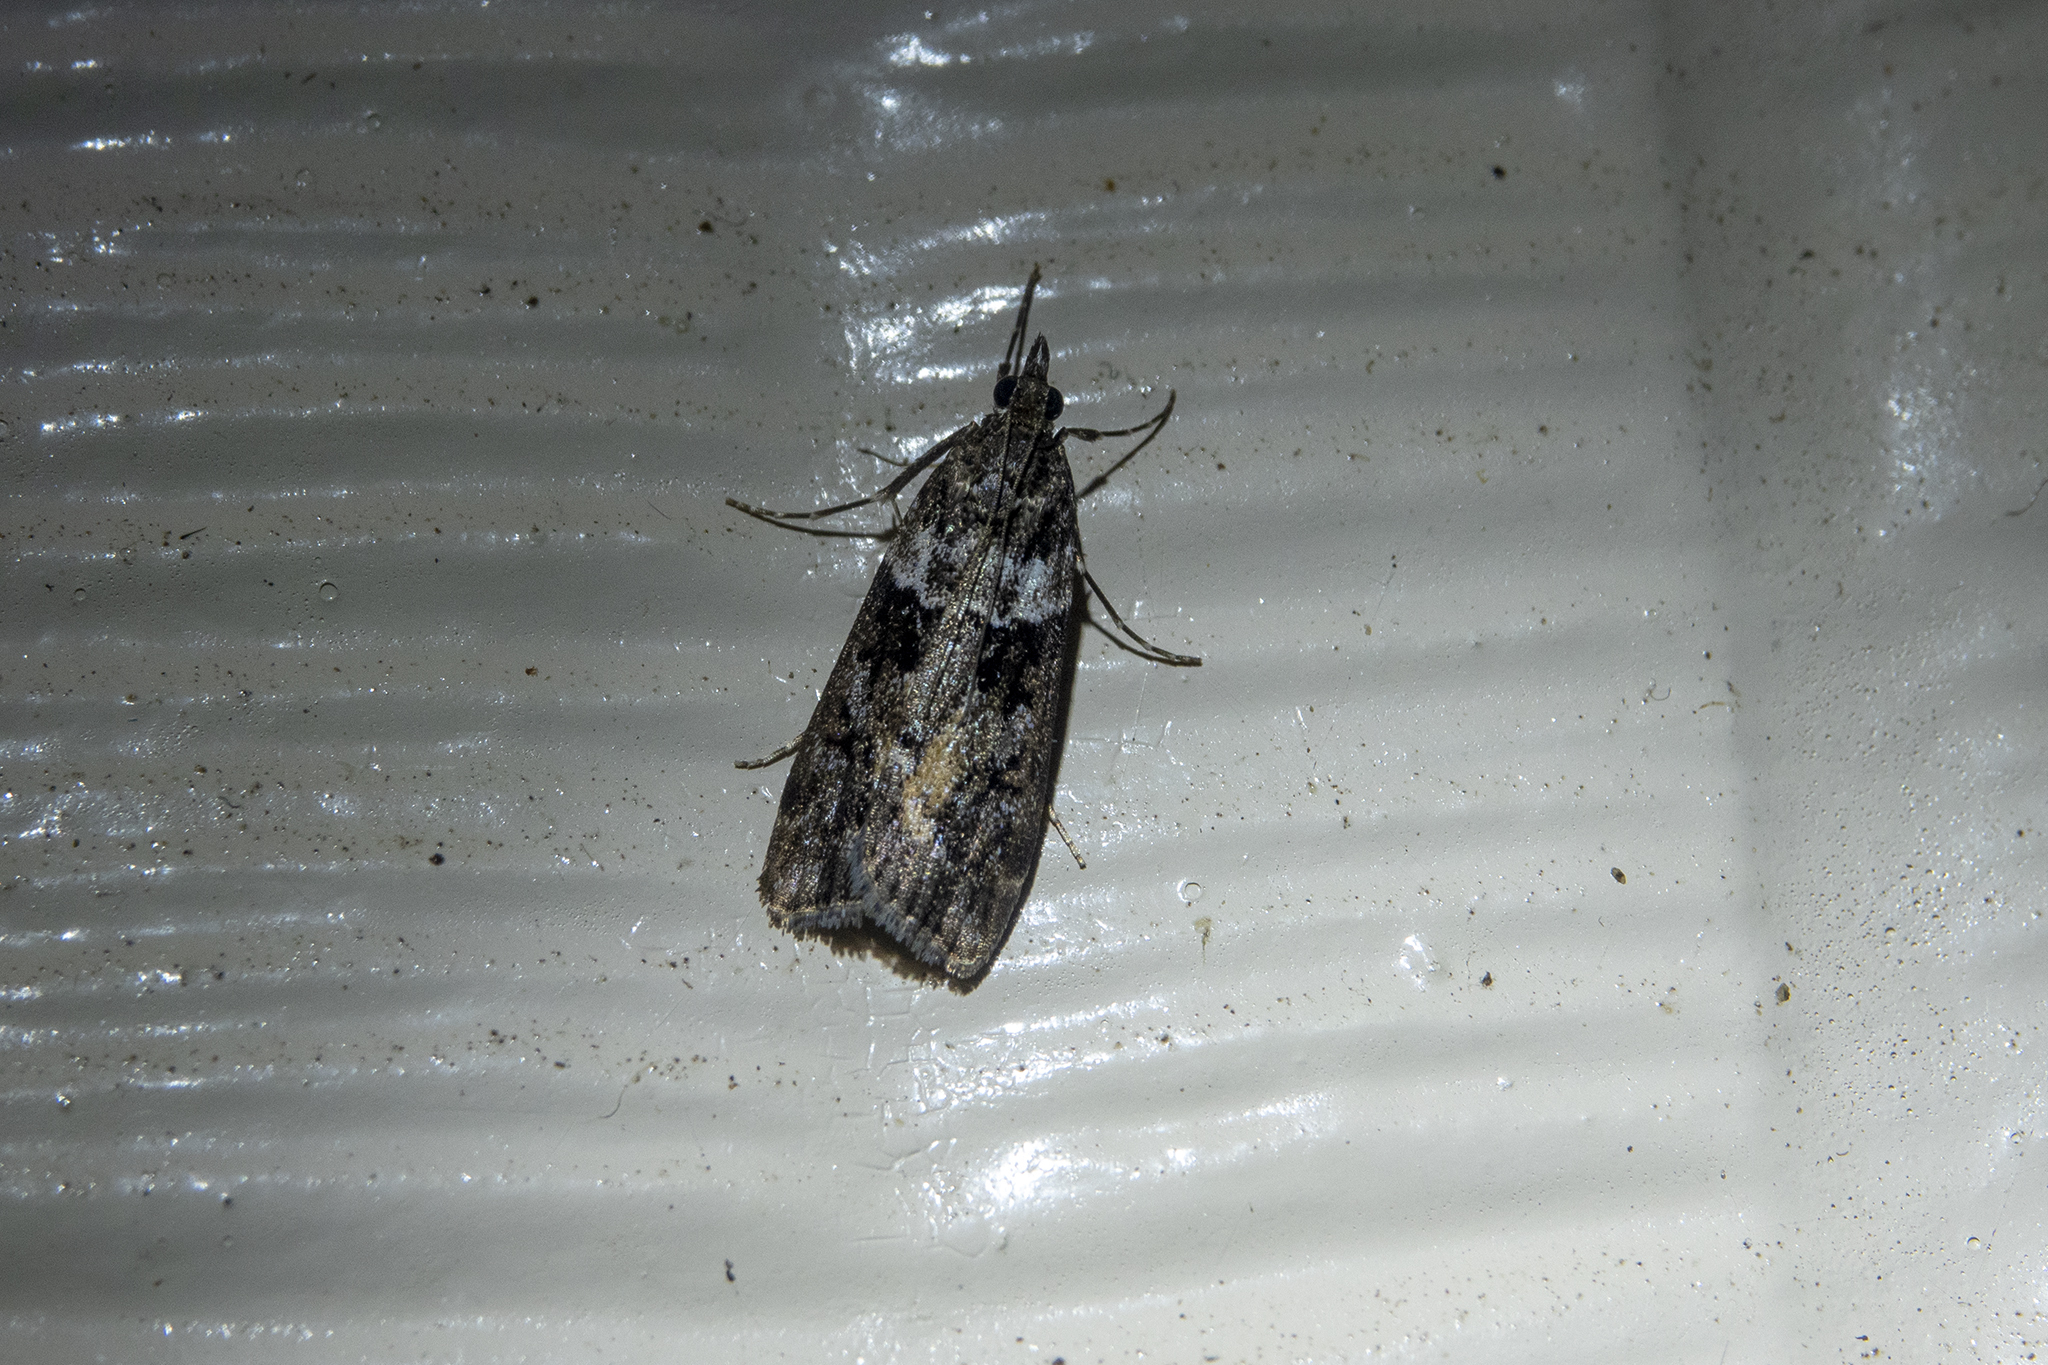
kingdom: Animalia
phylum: Arthropoda
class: Insecta
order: Lepidoptera
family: Crambidae
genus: Eudonia
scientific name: Eudonia submarginalis
